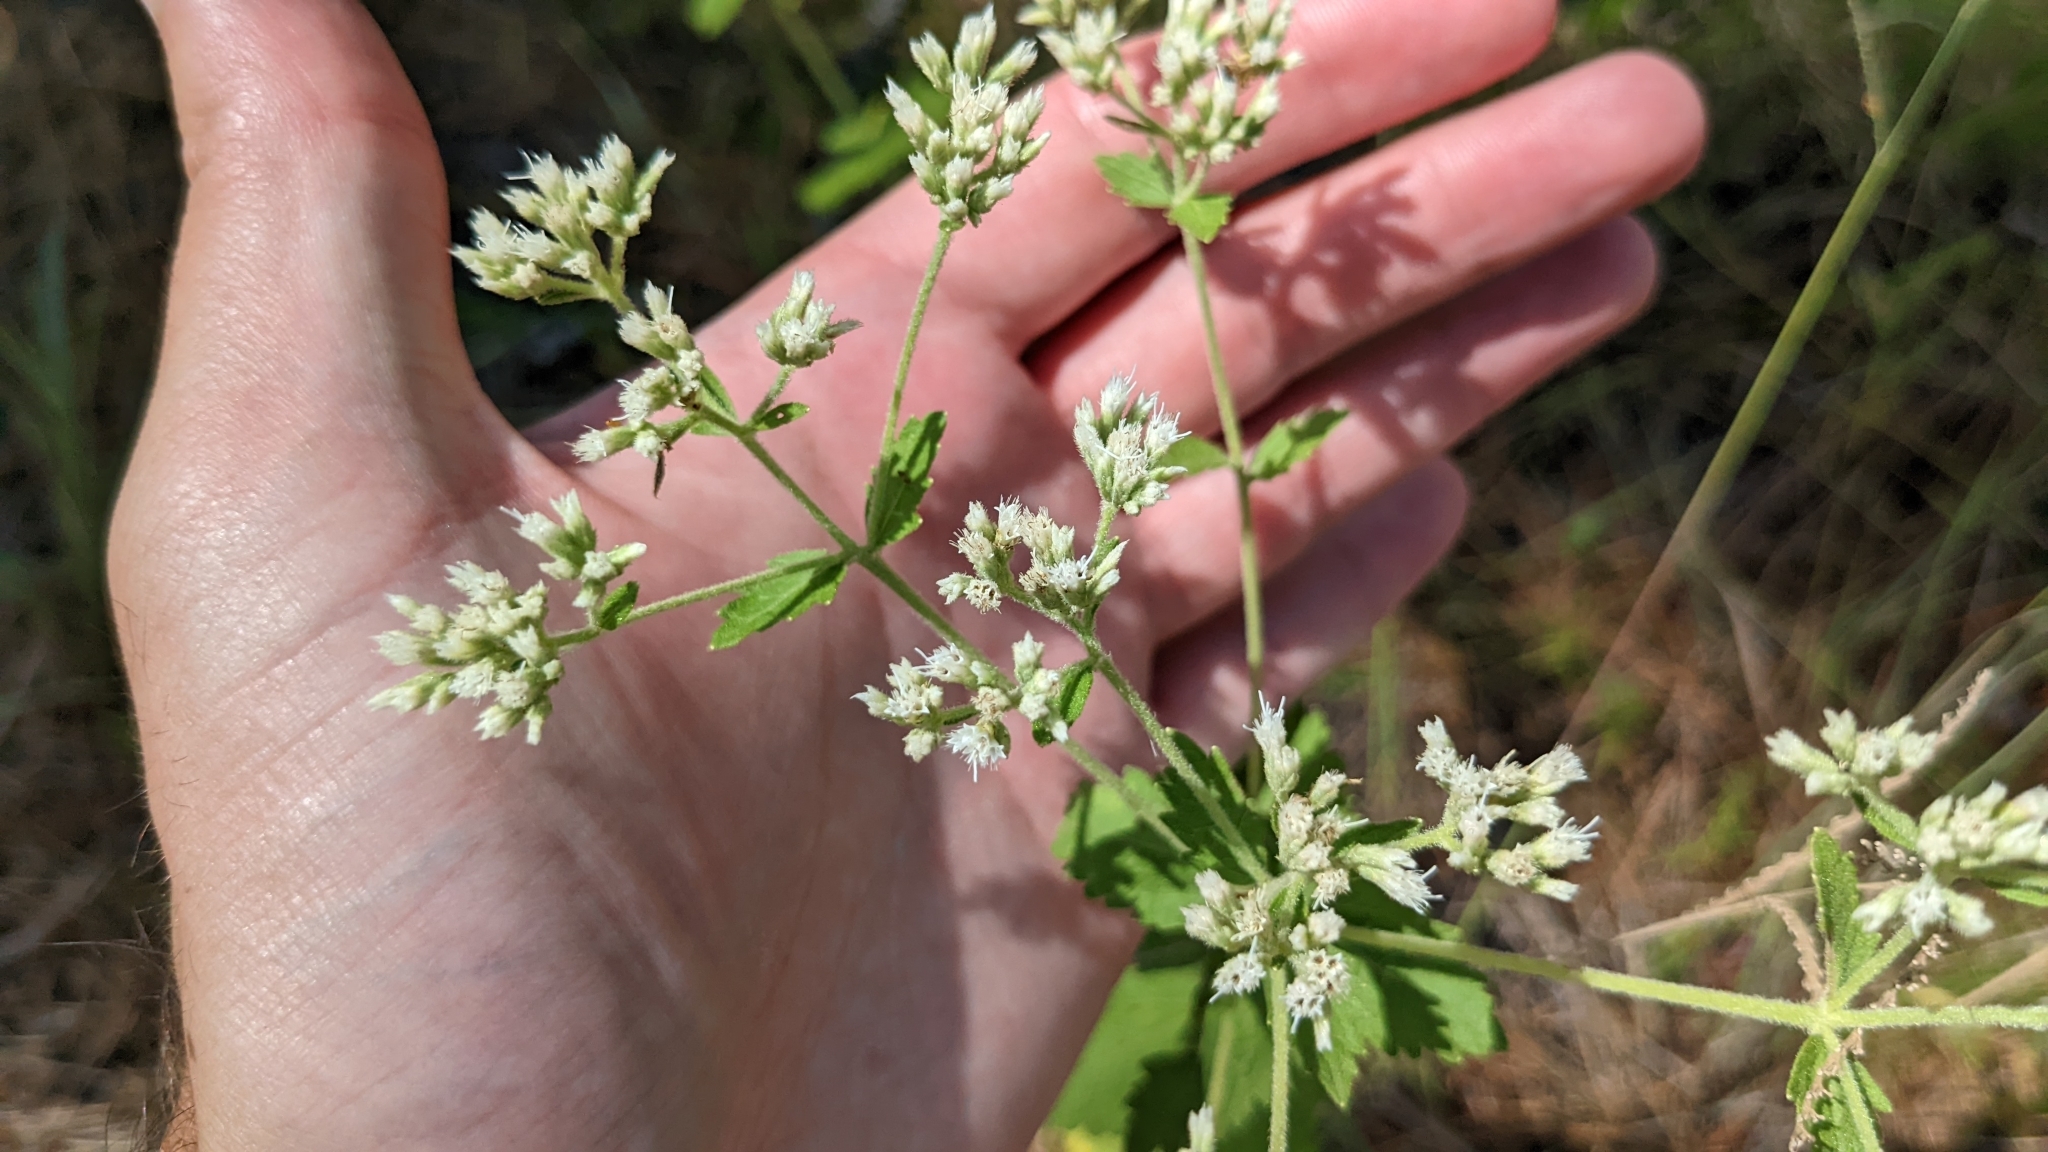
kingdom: Plantae
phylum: Tracheophyta
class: Magnoliopsida
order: Asterales
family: Asteraceae
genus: Eupatorium
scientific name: Eupatorium rotundifolium
